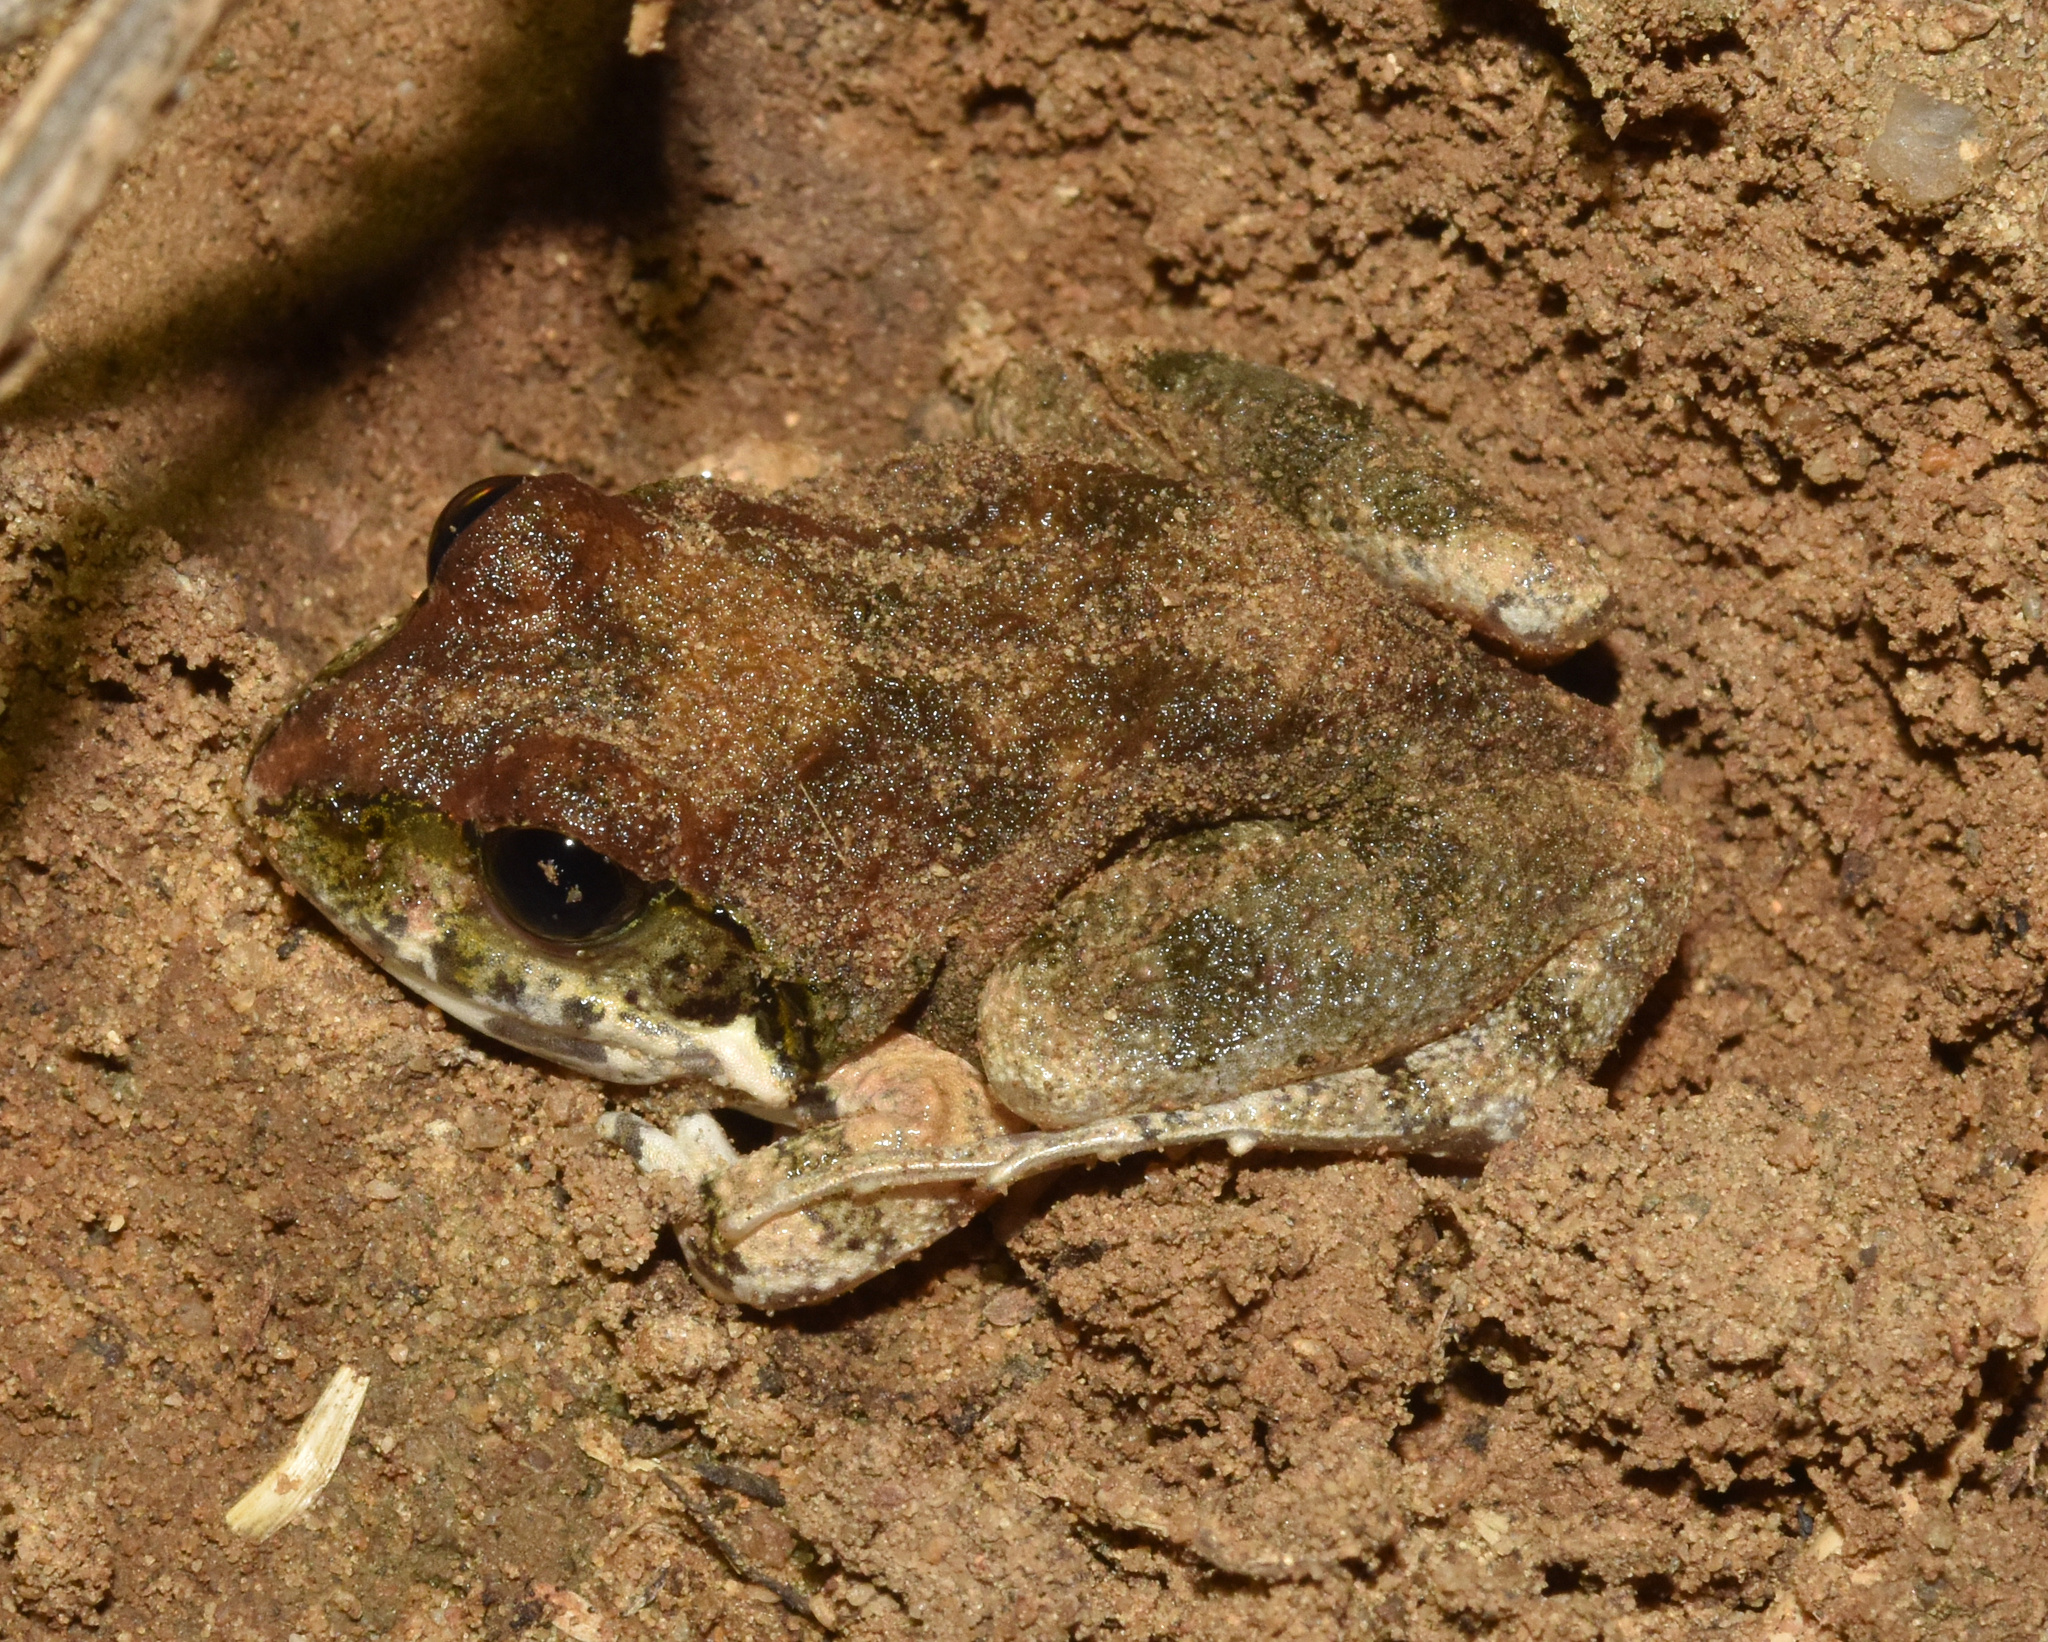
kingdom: Animalia
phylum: Chordata
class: Amphibia
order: Anura
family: Pyxicephalidae
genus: Tomopterna
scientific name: Tomopterna natalensis
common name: Natal sand frog
